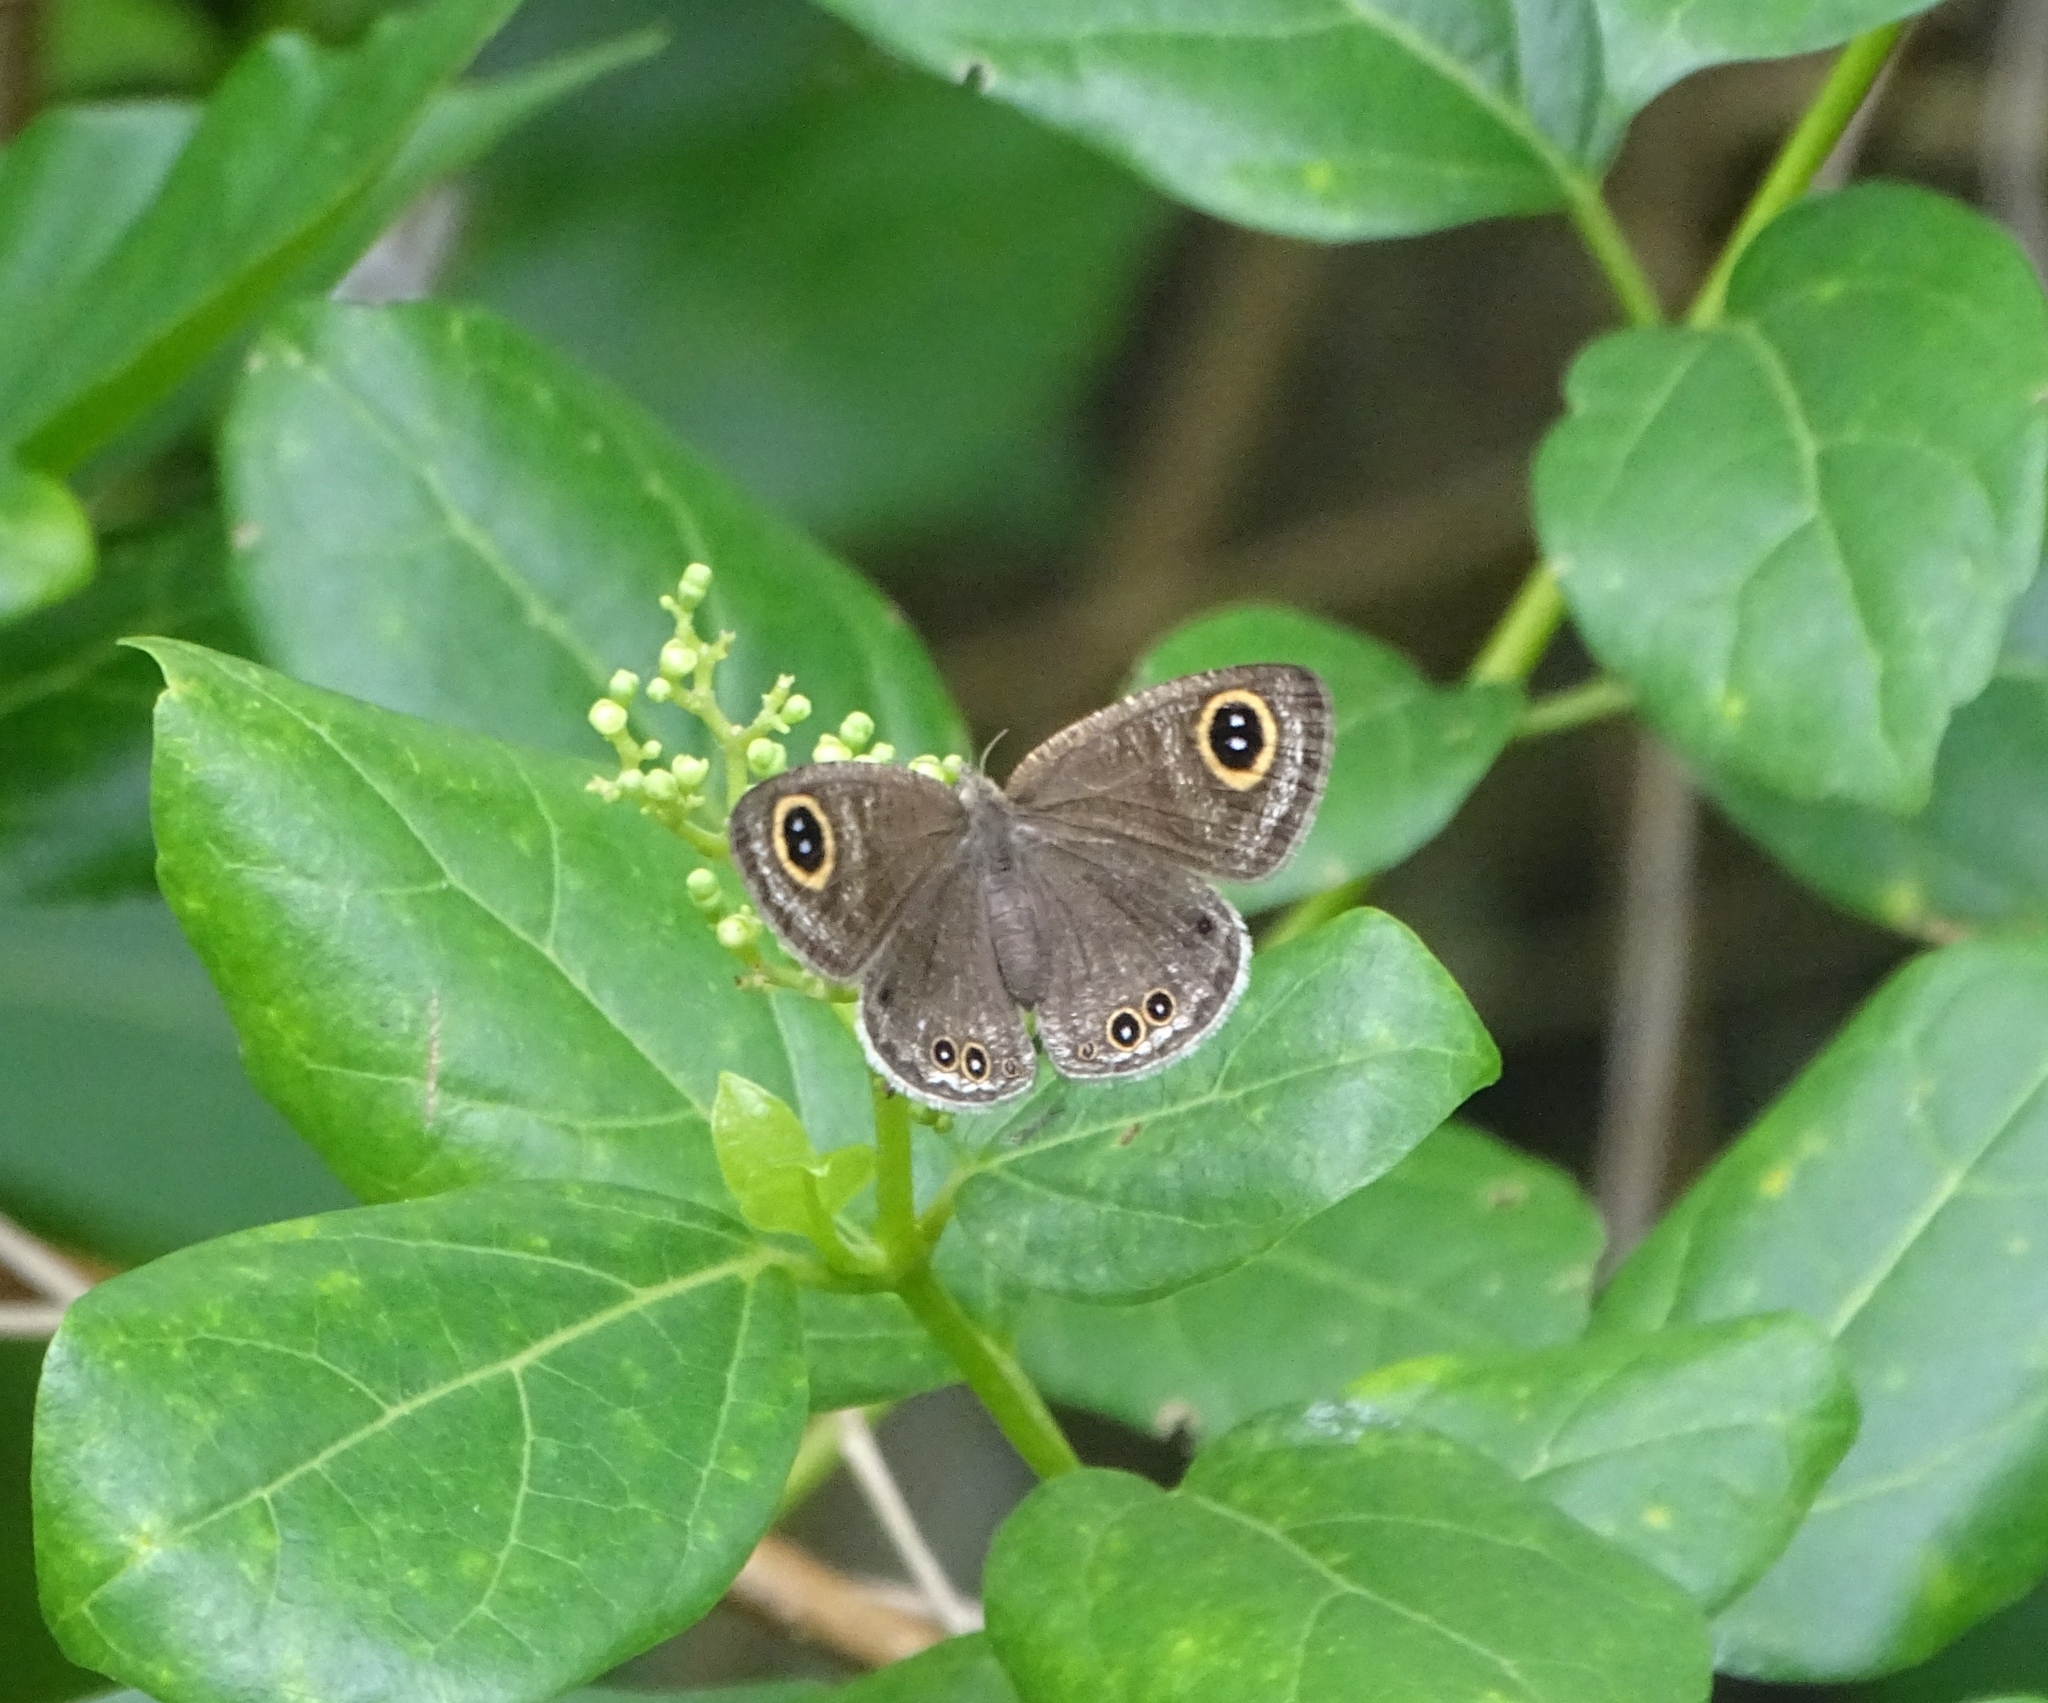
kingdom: Animalia
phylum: Arthropoda
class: Insecta
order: Lepidoptera
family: Nymphalidae
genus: Ypthima
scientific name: Ypthima huebneri
